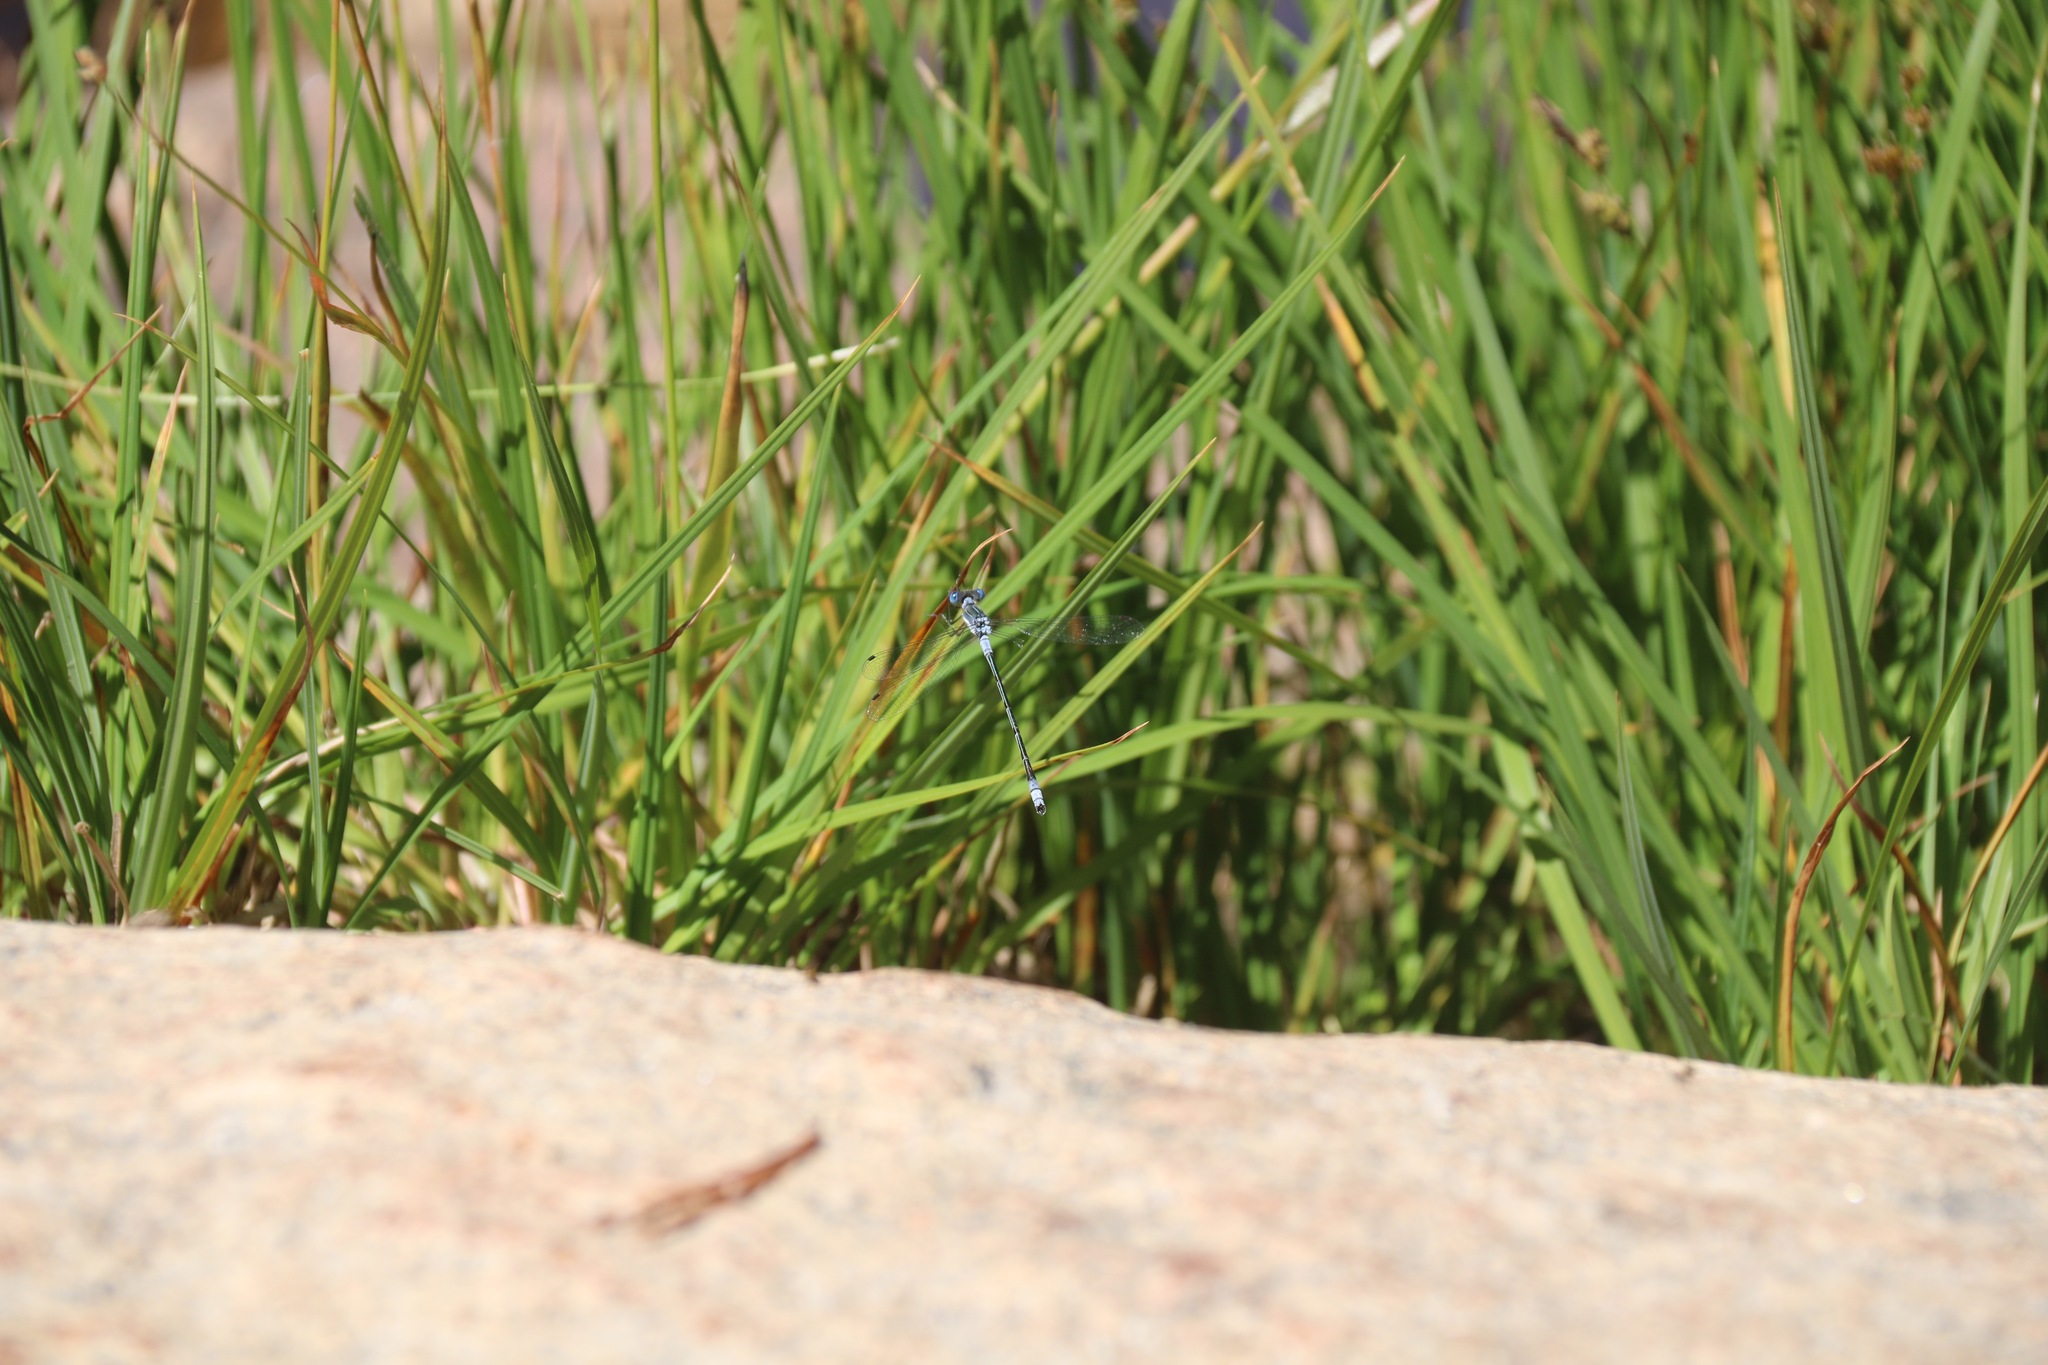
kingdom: Animalia
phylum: Arthropoda
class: Insecta
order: Odonata
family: Lestidae
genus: Lestes
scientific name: Lestes disjunctus
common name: Northern spreadwing
